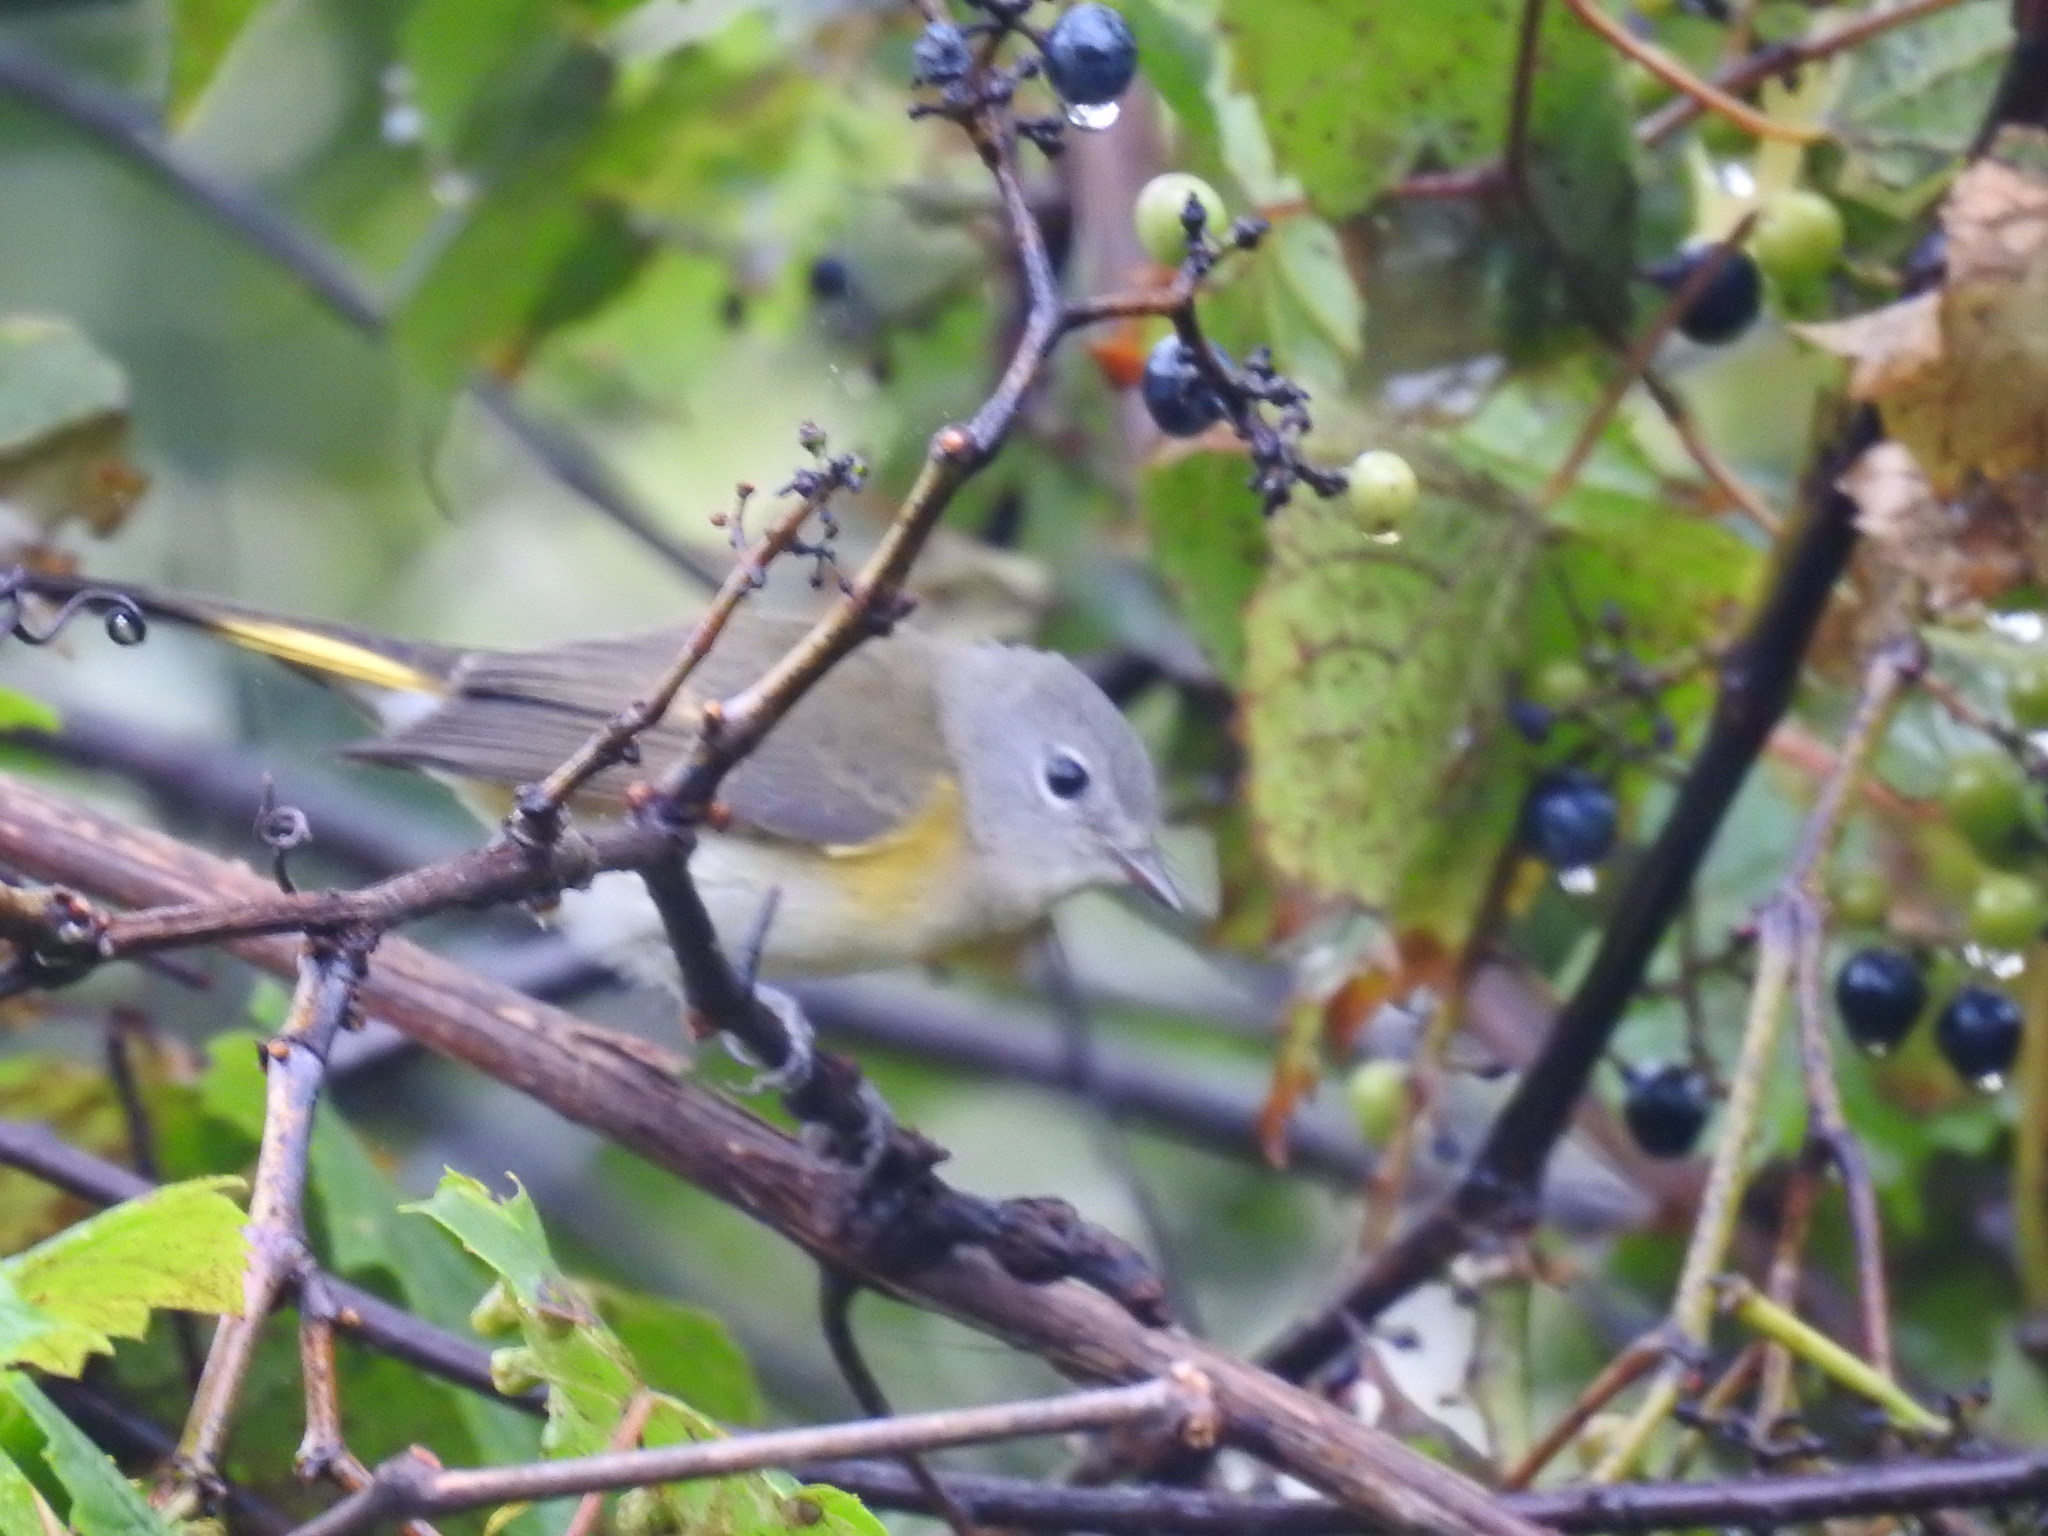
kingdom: Animalia
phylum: Chordata
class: Aves
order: Passeriformes
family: Parulidae
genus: Setophaga
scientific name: Setophaga ruticilla
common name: American redstart
